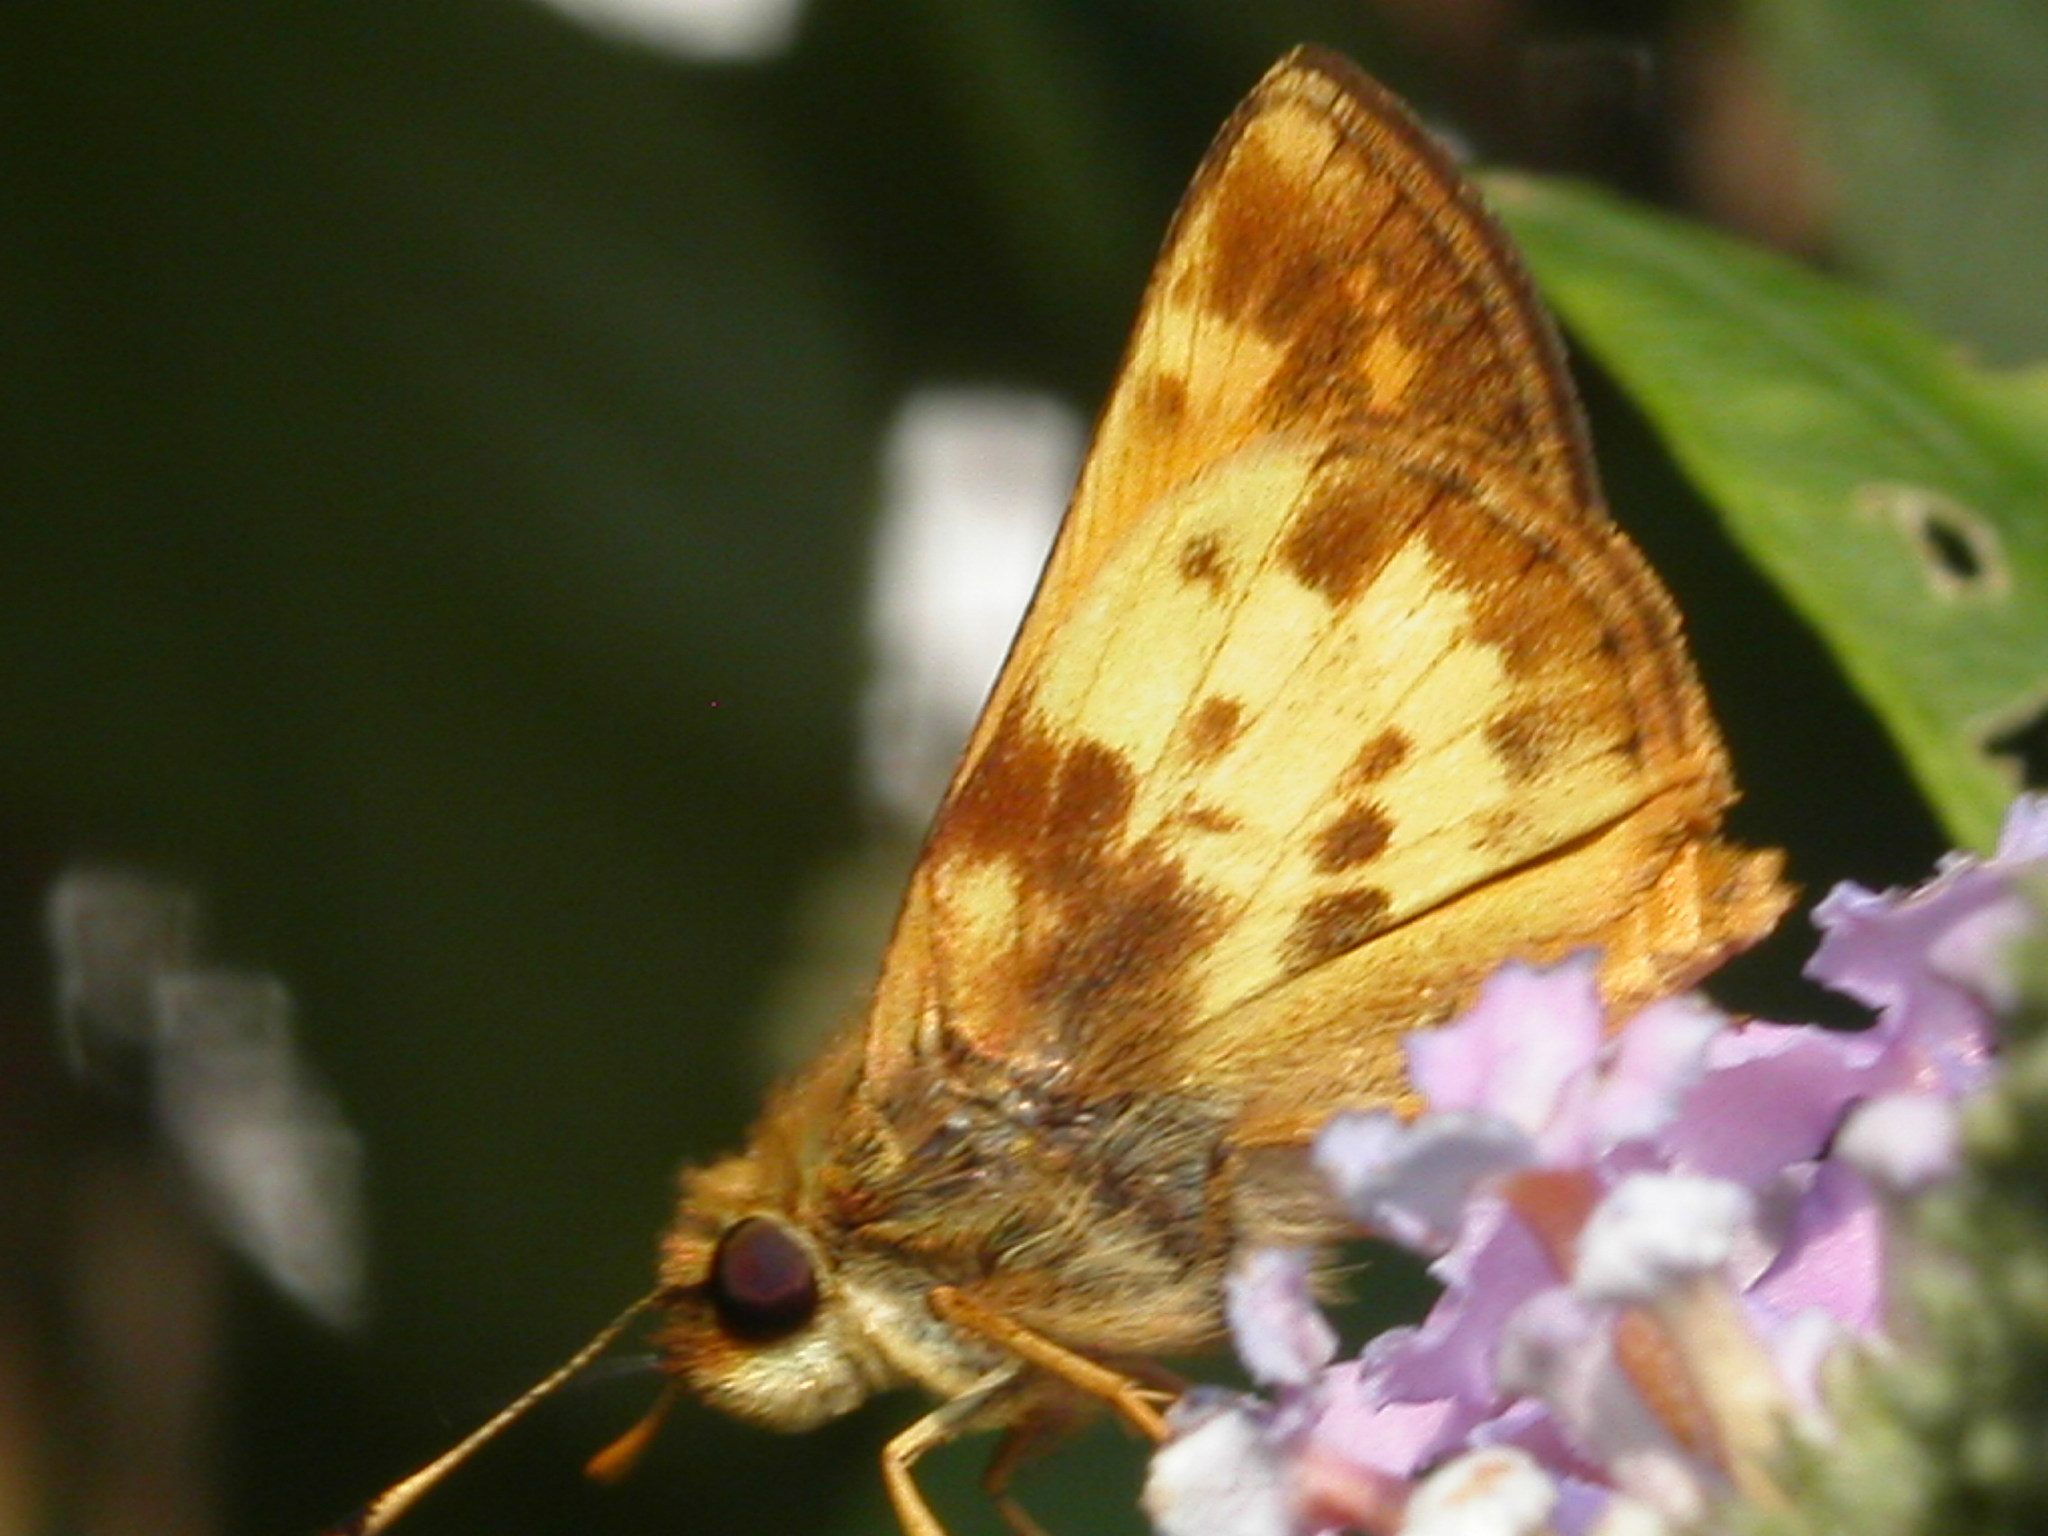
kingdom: Animalia
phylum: Arthropoda
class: Insecta
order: Lepidoptera
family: Hesperiidae
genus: Lon
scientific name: Lon zabulon
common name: Zabulon skipper
